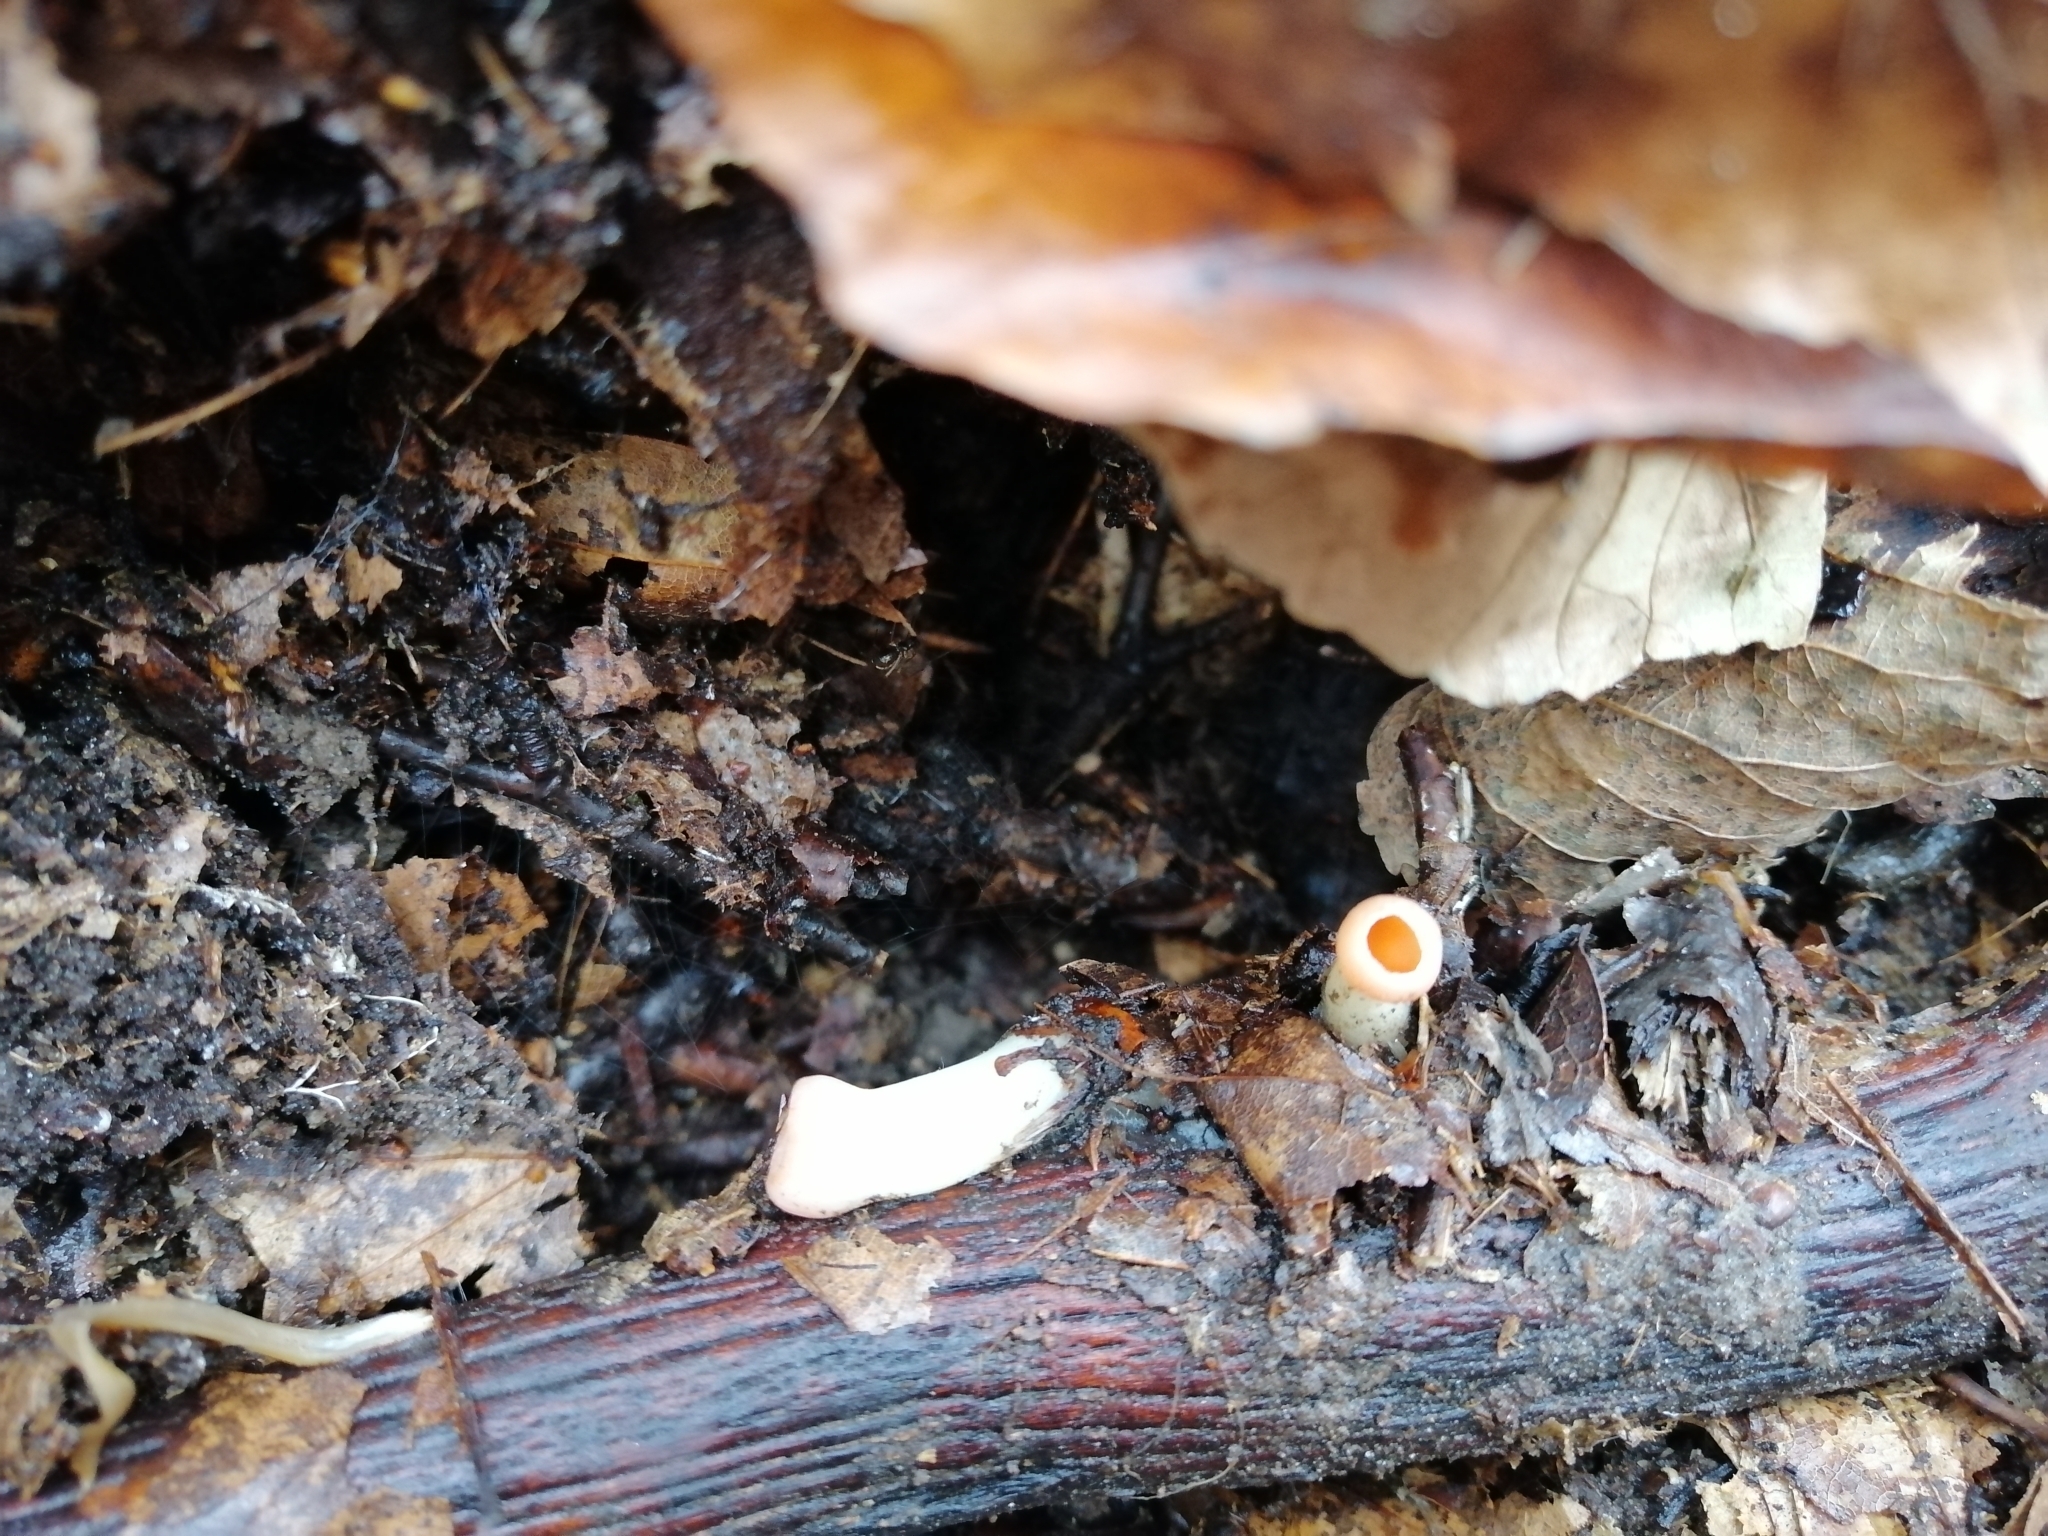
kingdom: Fungi
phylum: Ascomycota
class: Pezizomycetes
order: Pezizales
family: Sarcoscyphaceae
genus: Sarcoscypha
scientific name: Sarcoscypha
